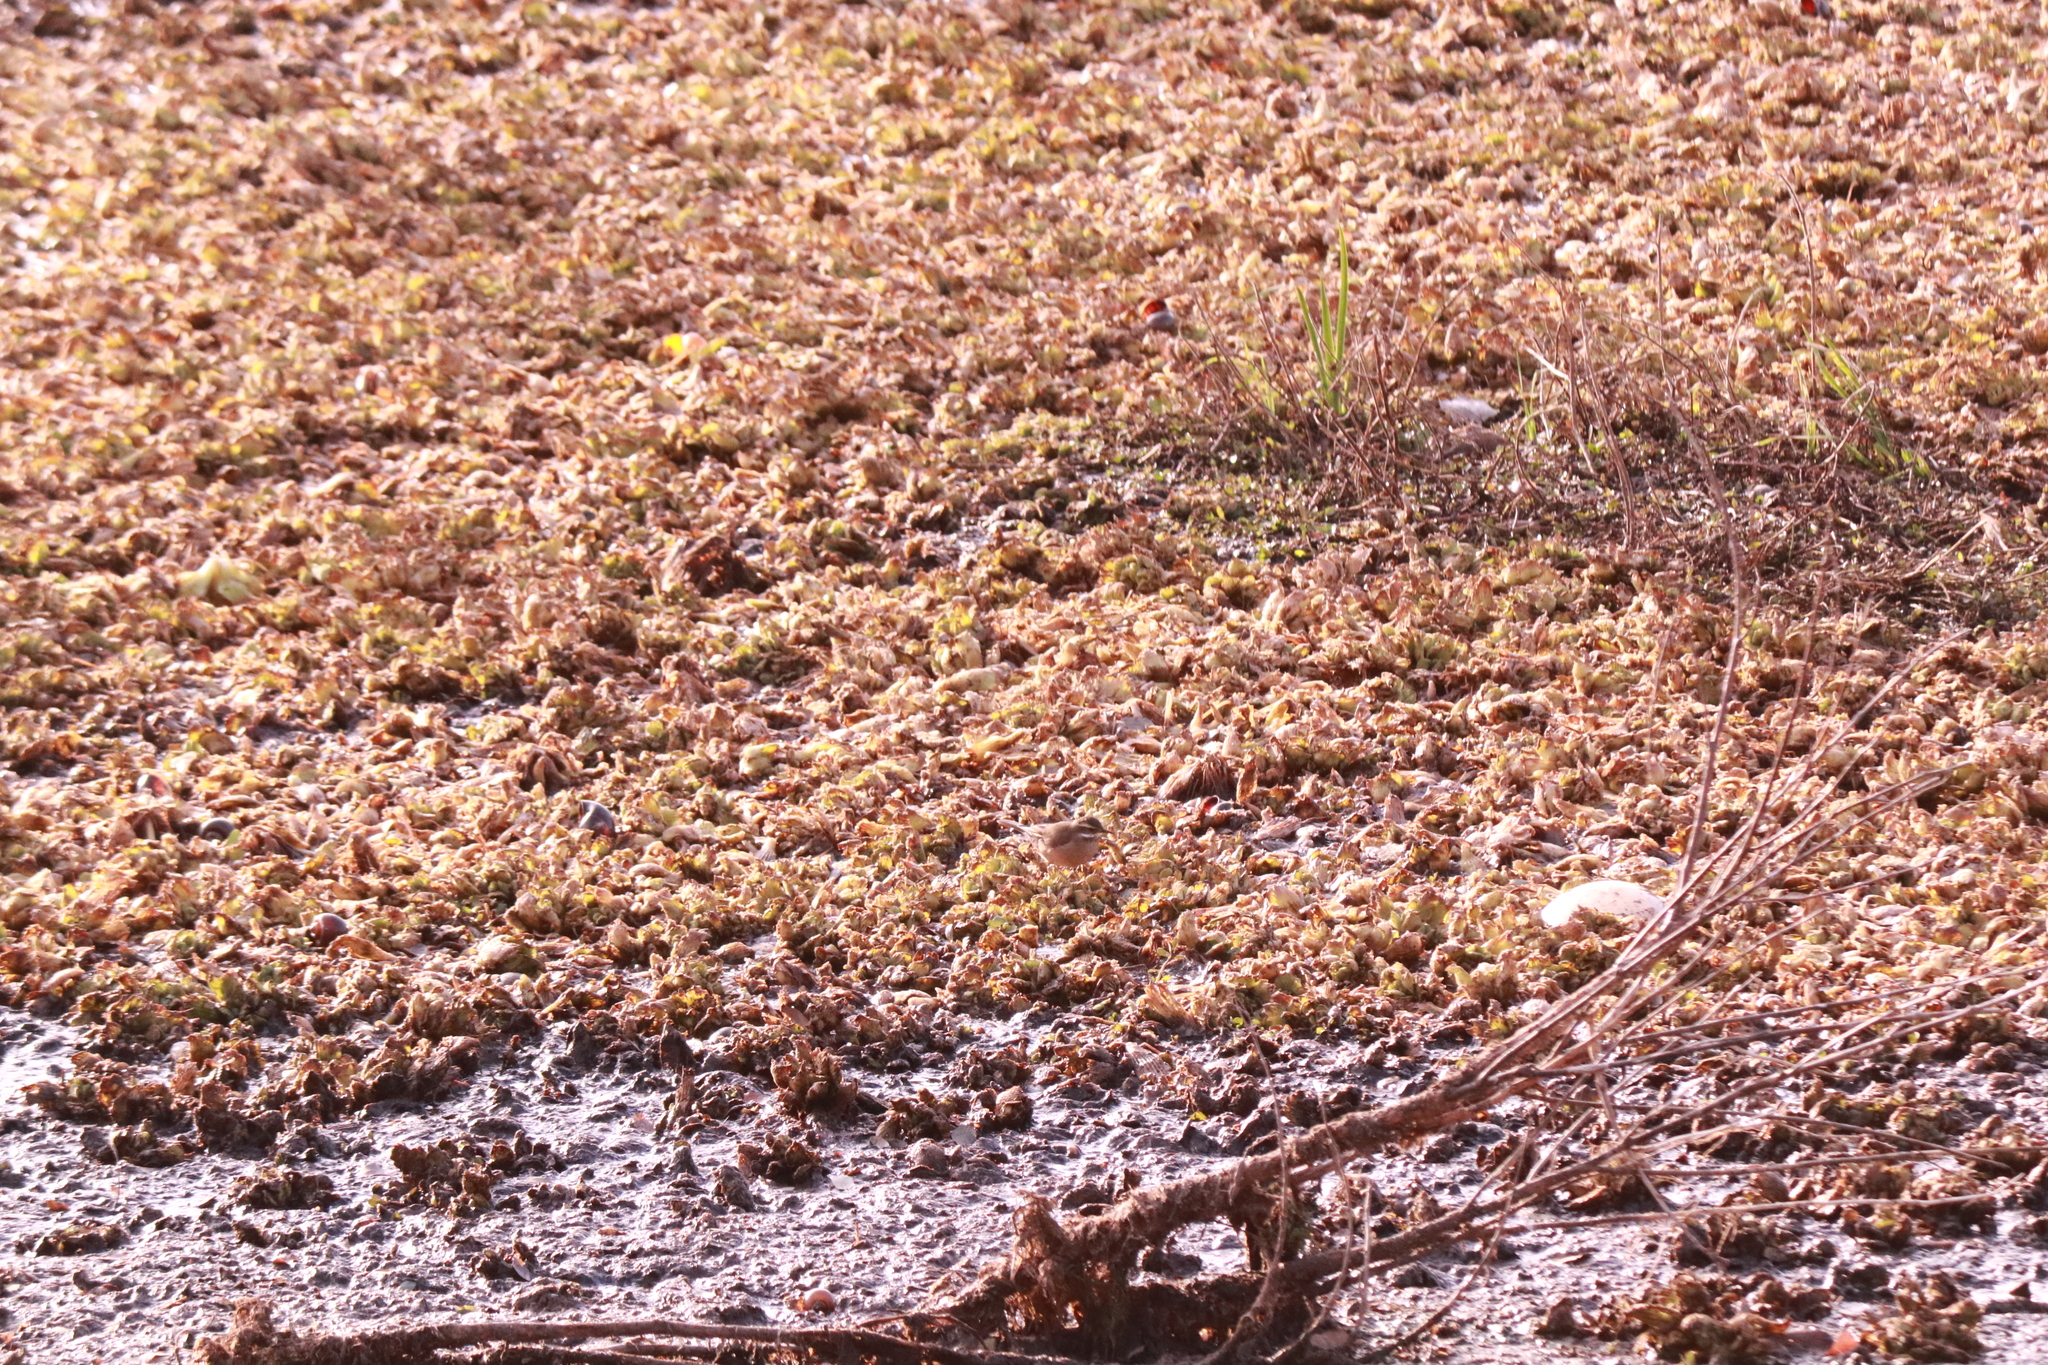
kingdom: Animalia
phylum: Chordata
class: Aves
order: Passeriformes
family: Furnariidae
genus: Cinclodes
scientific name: Cinclodes fuscus
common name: Buff-winged cinclodes
